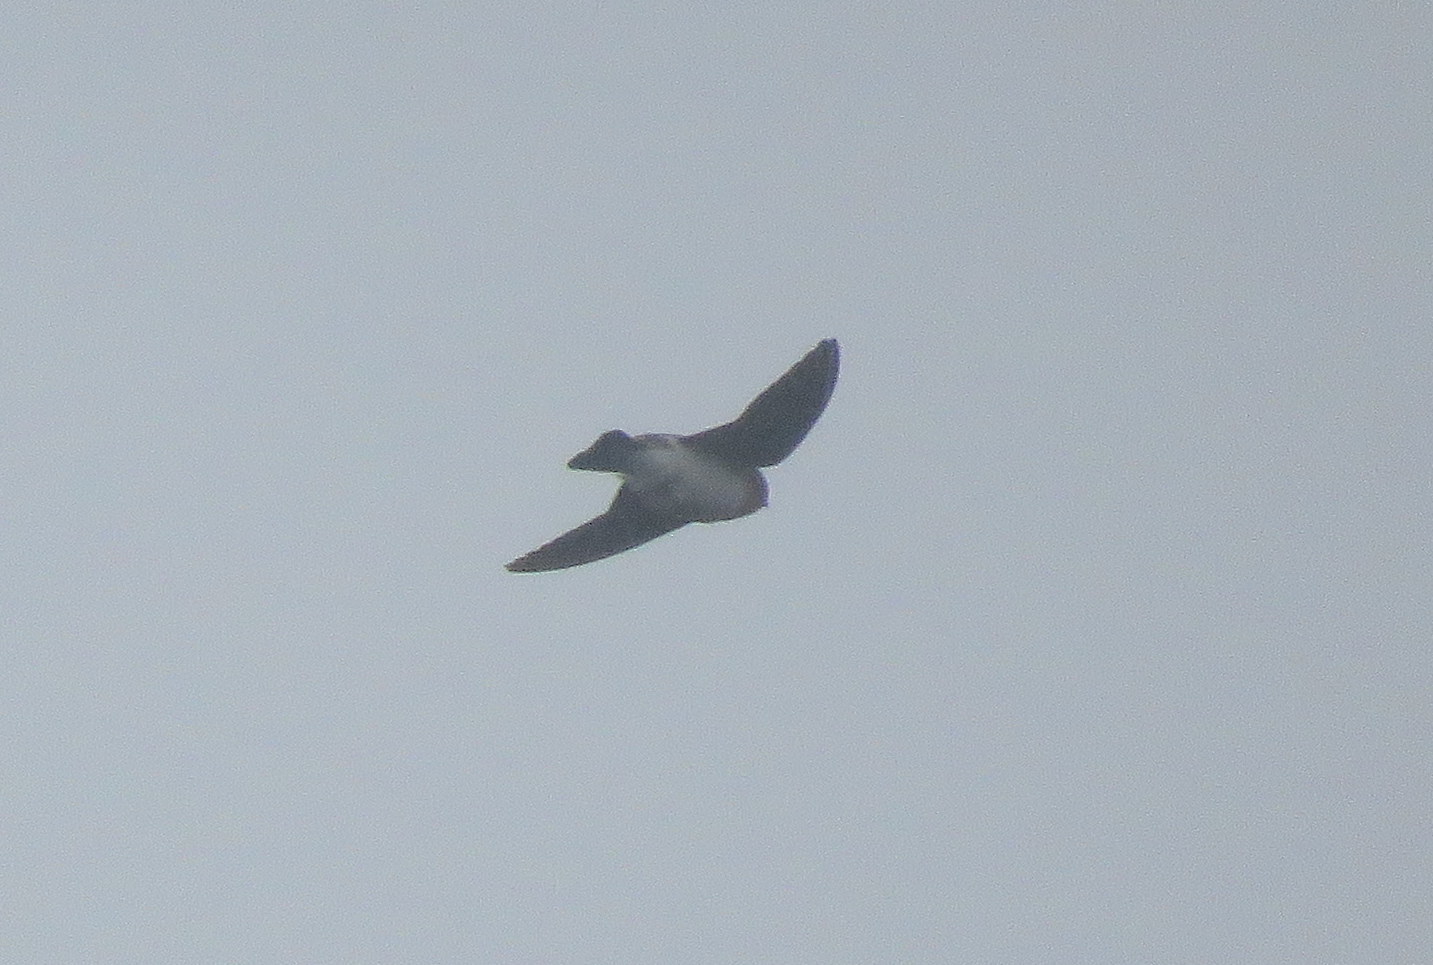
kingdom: Animalia
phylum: Chordata
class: Aves
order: Passeriformes
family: Hirundinidae
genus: Alopochelidon
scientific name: Alopochelidon fucata
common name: Tawny-headed swallow
